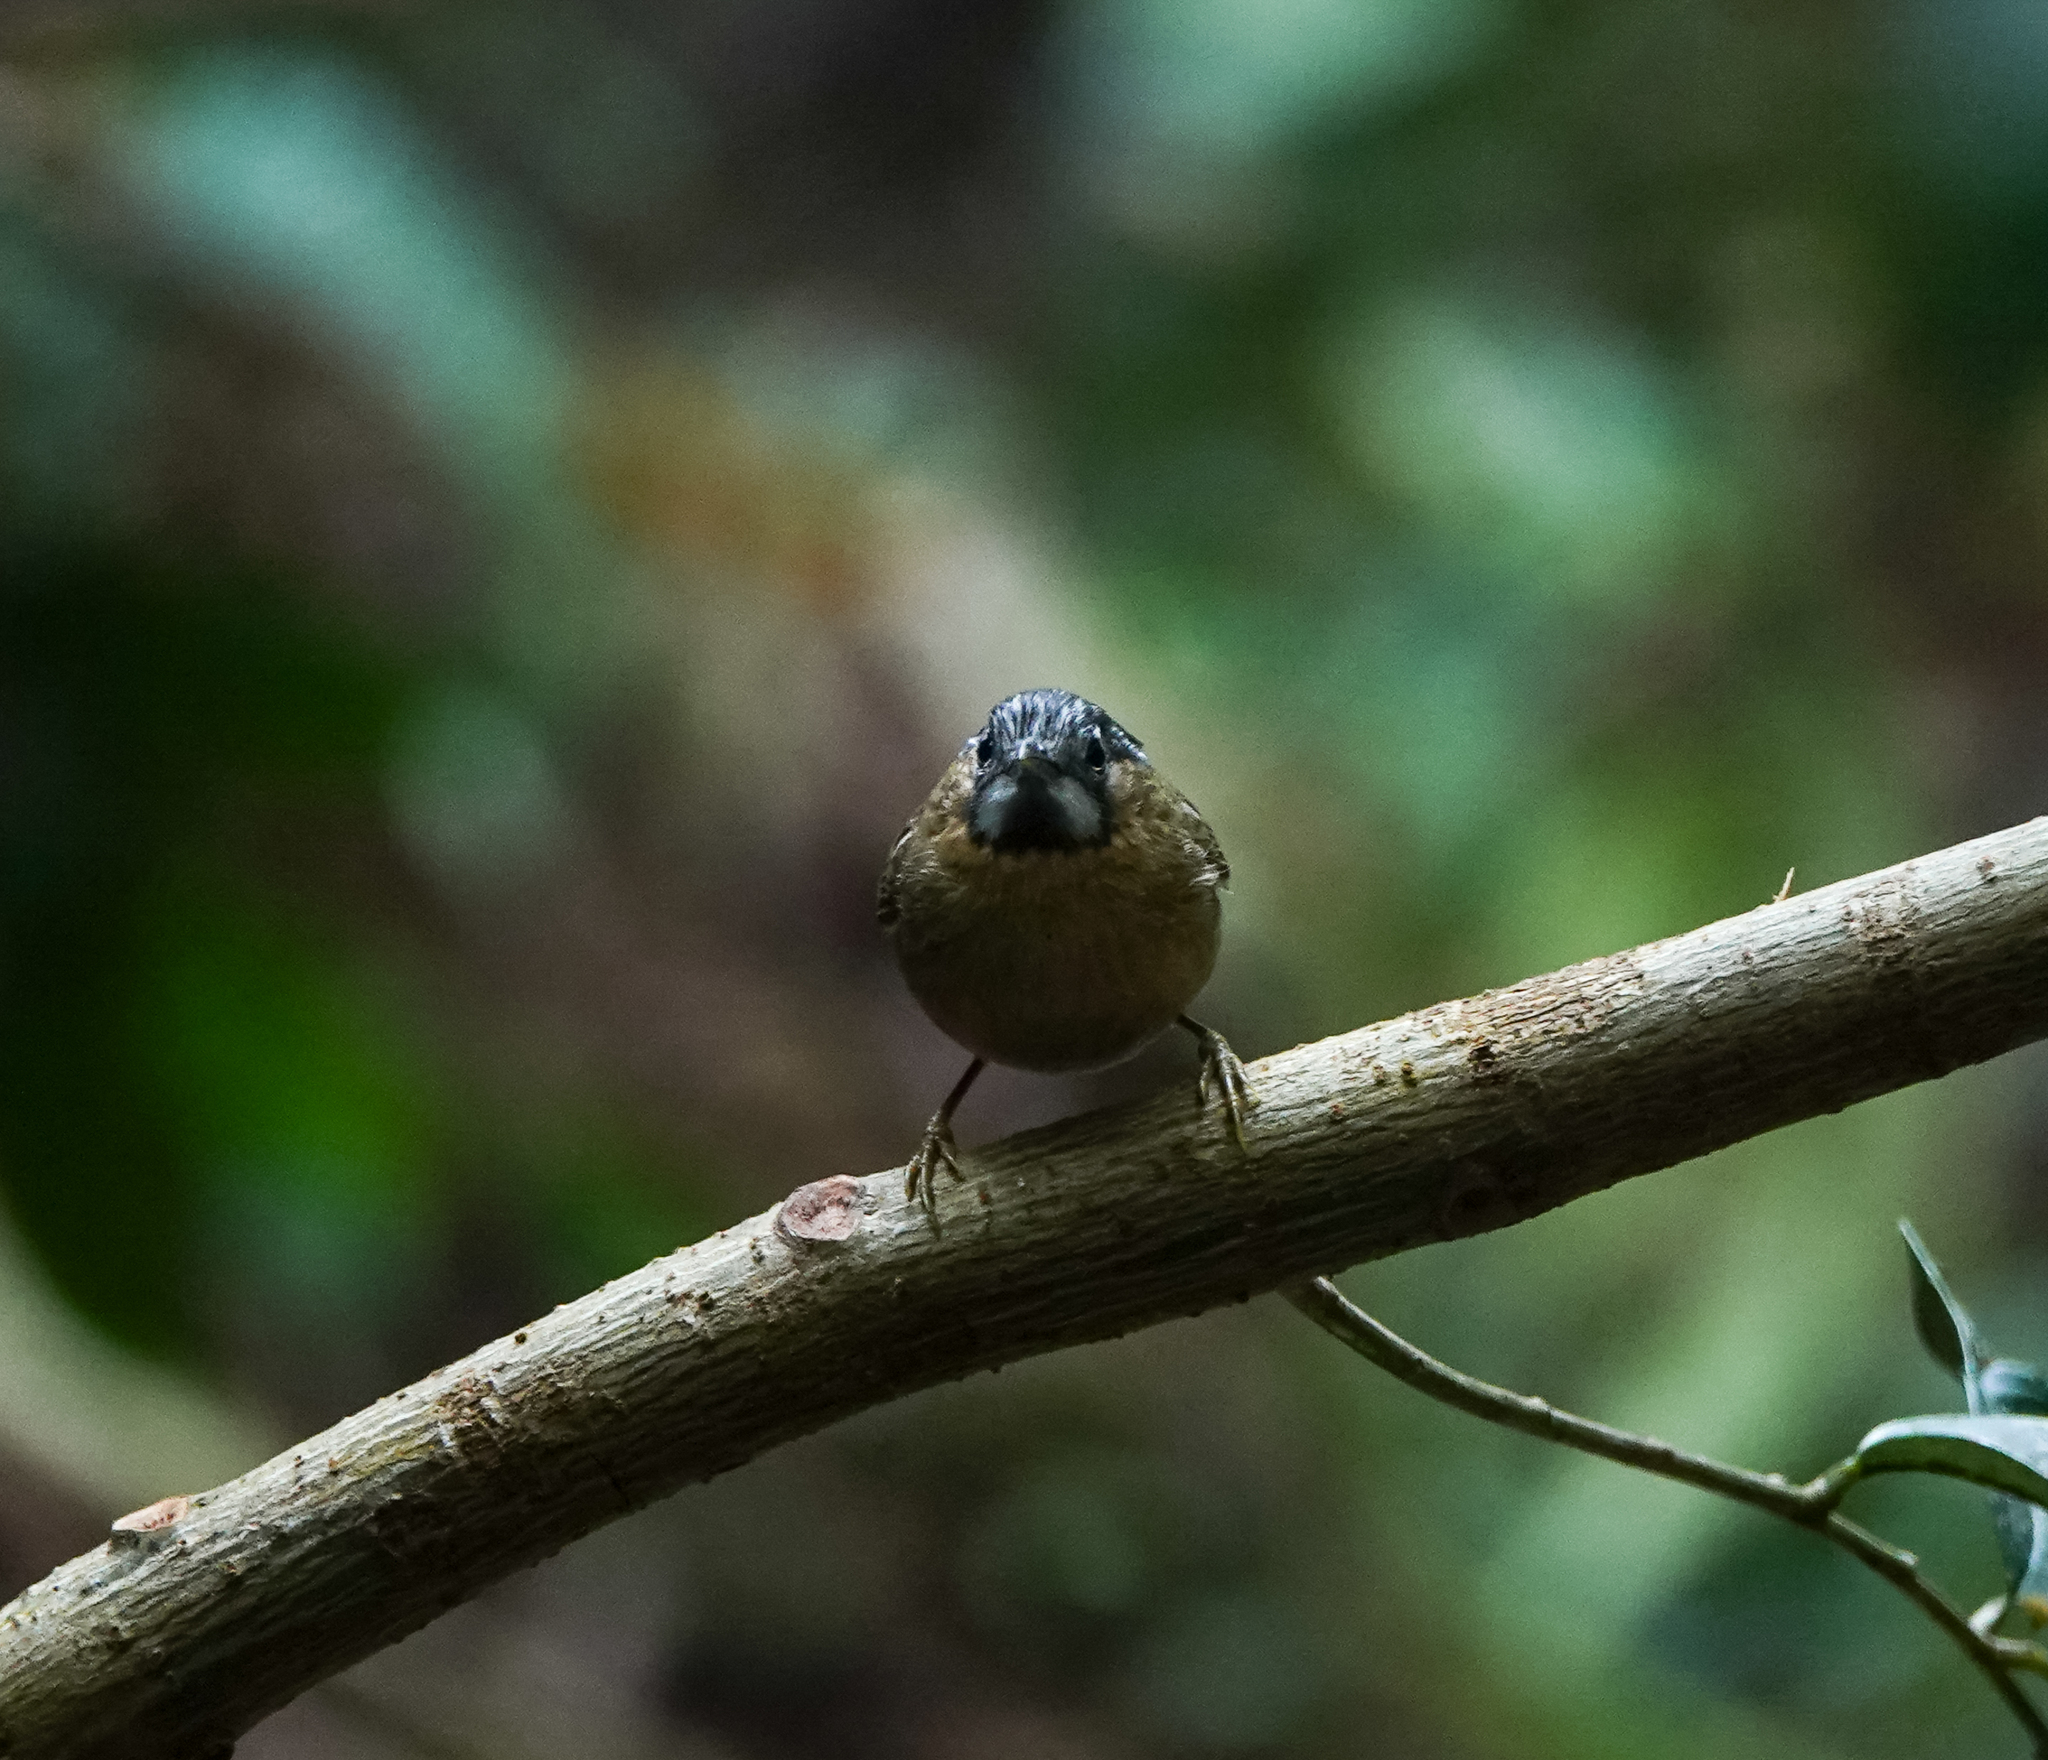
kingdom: Animalia
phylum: Chordata
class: Aves
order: Passeriformes
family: Timaliidae
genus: Stachyris
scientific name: Stachyris nigriceps
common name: Grey-throated babbler
